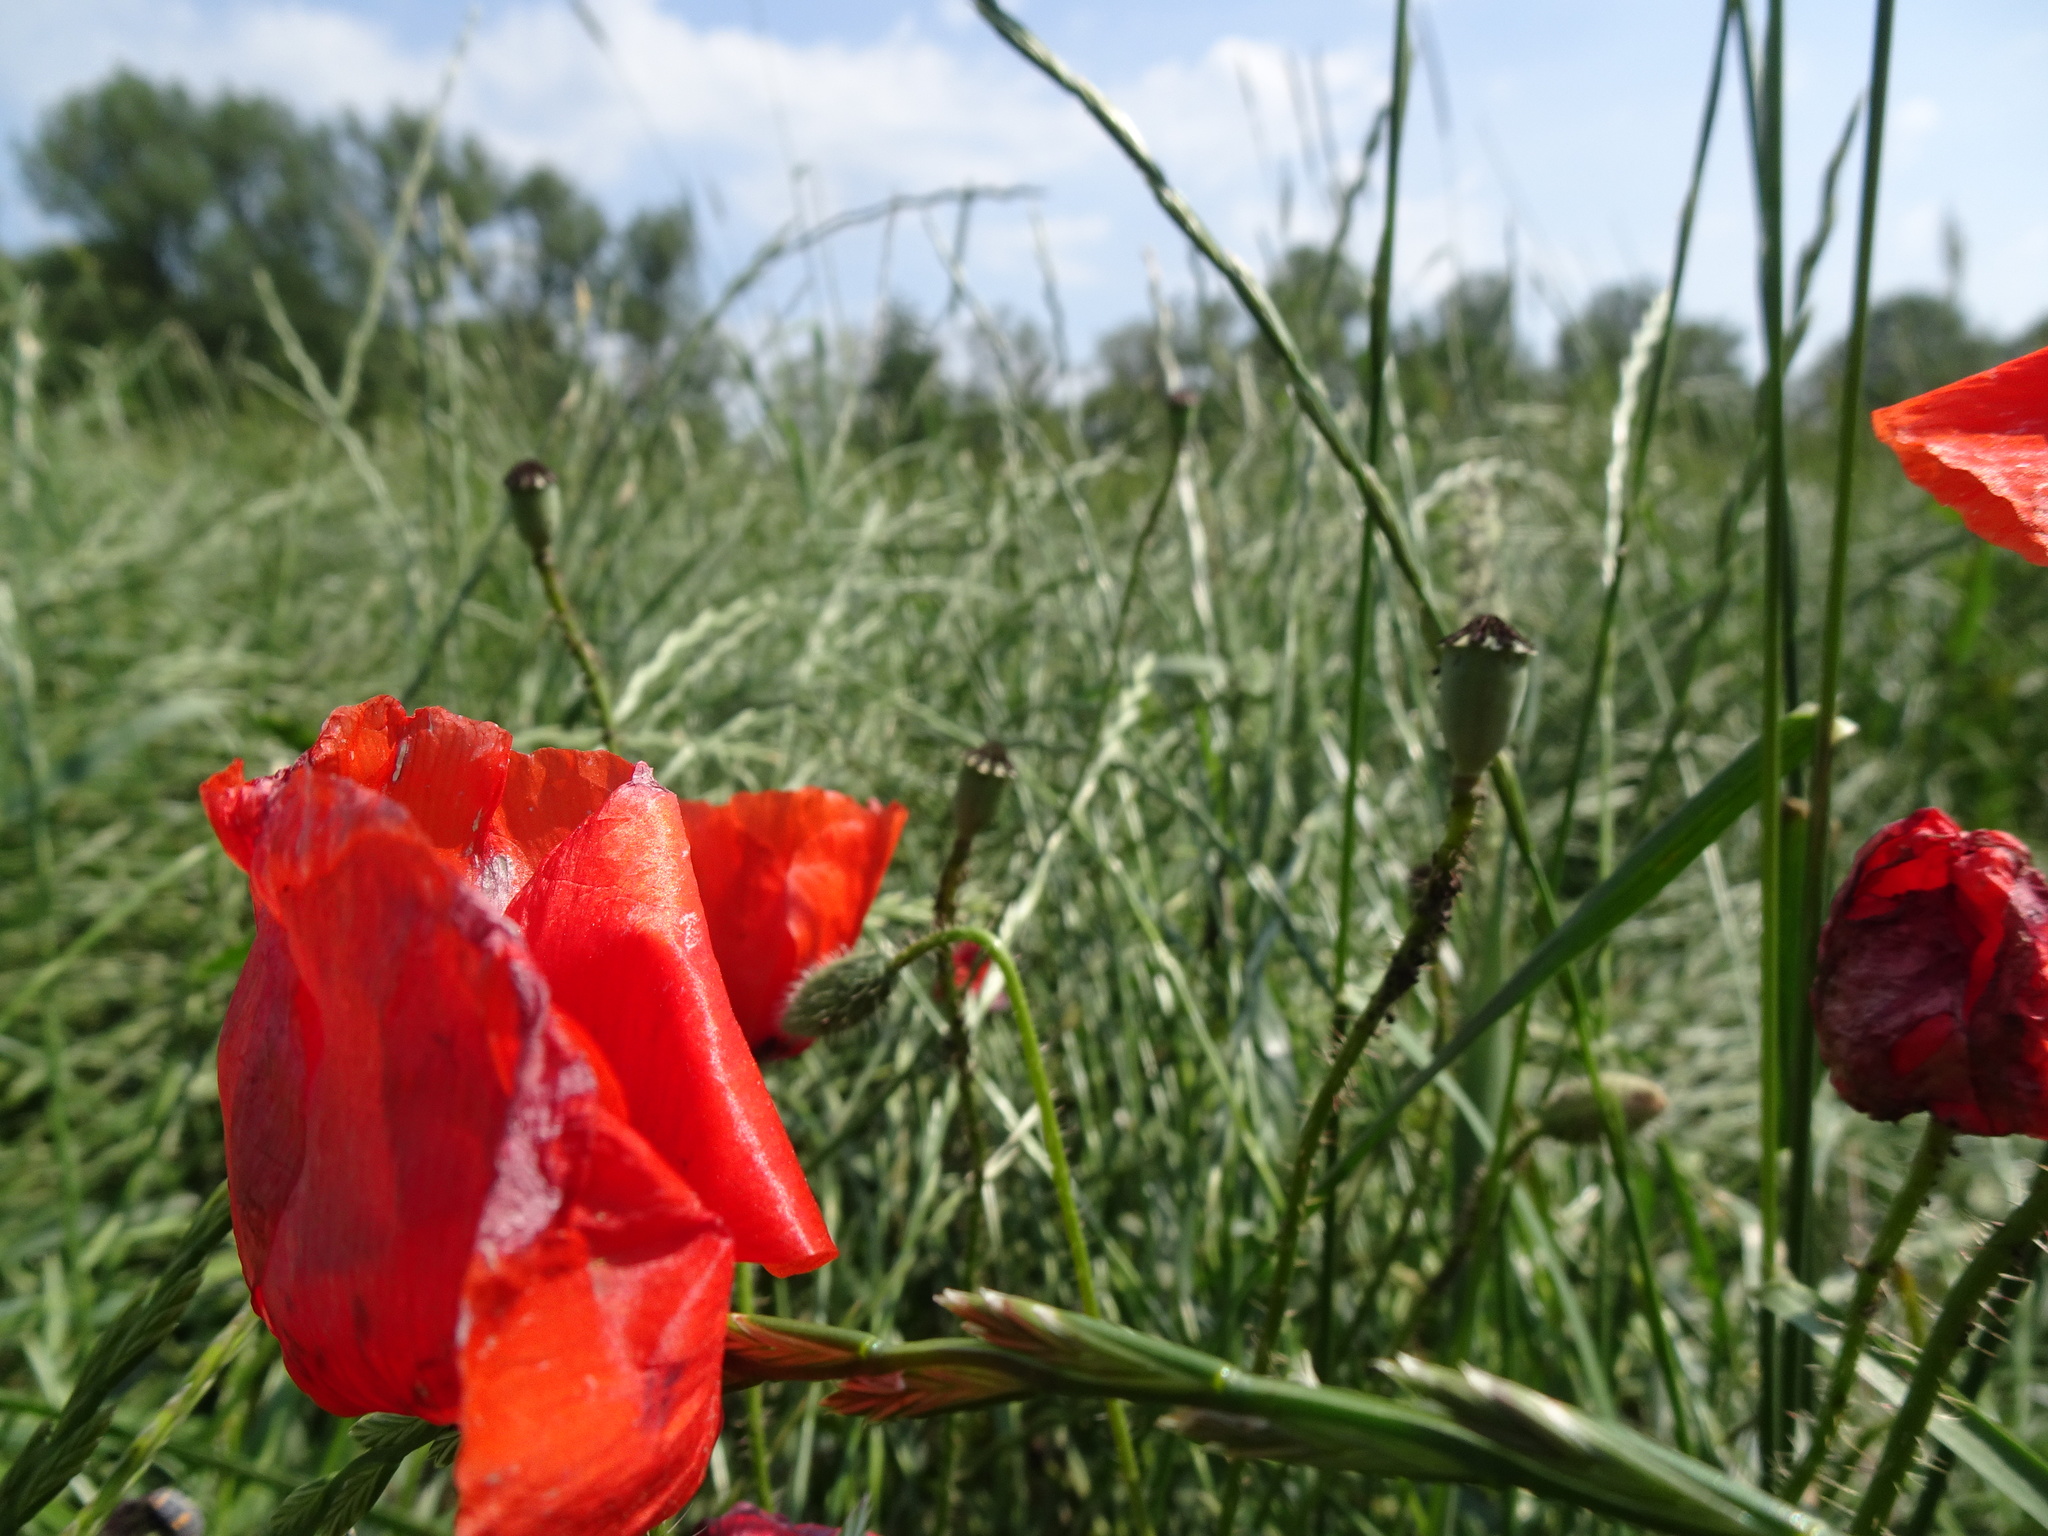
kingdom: Plantae
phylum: Tracheophyta
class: Magnoliopsida
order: Ranunculales
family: Papaveraceae
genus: Papaver
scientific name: Papaver rhoeas
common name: Corn poppy
